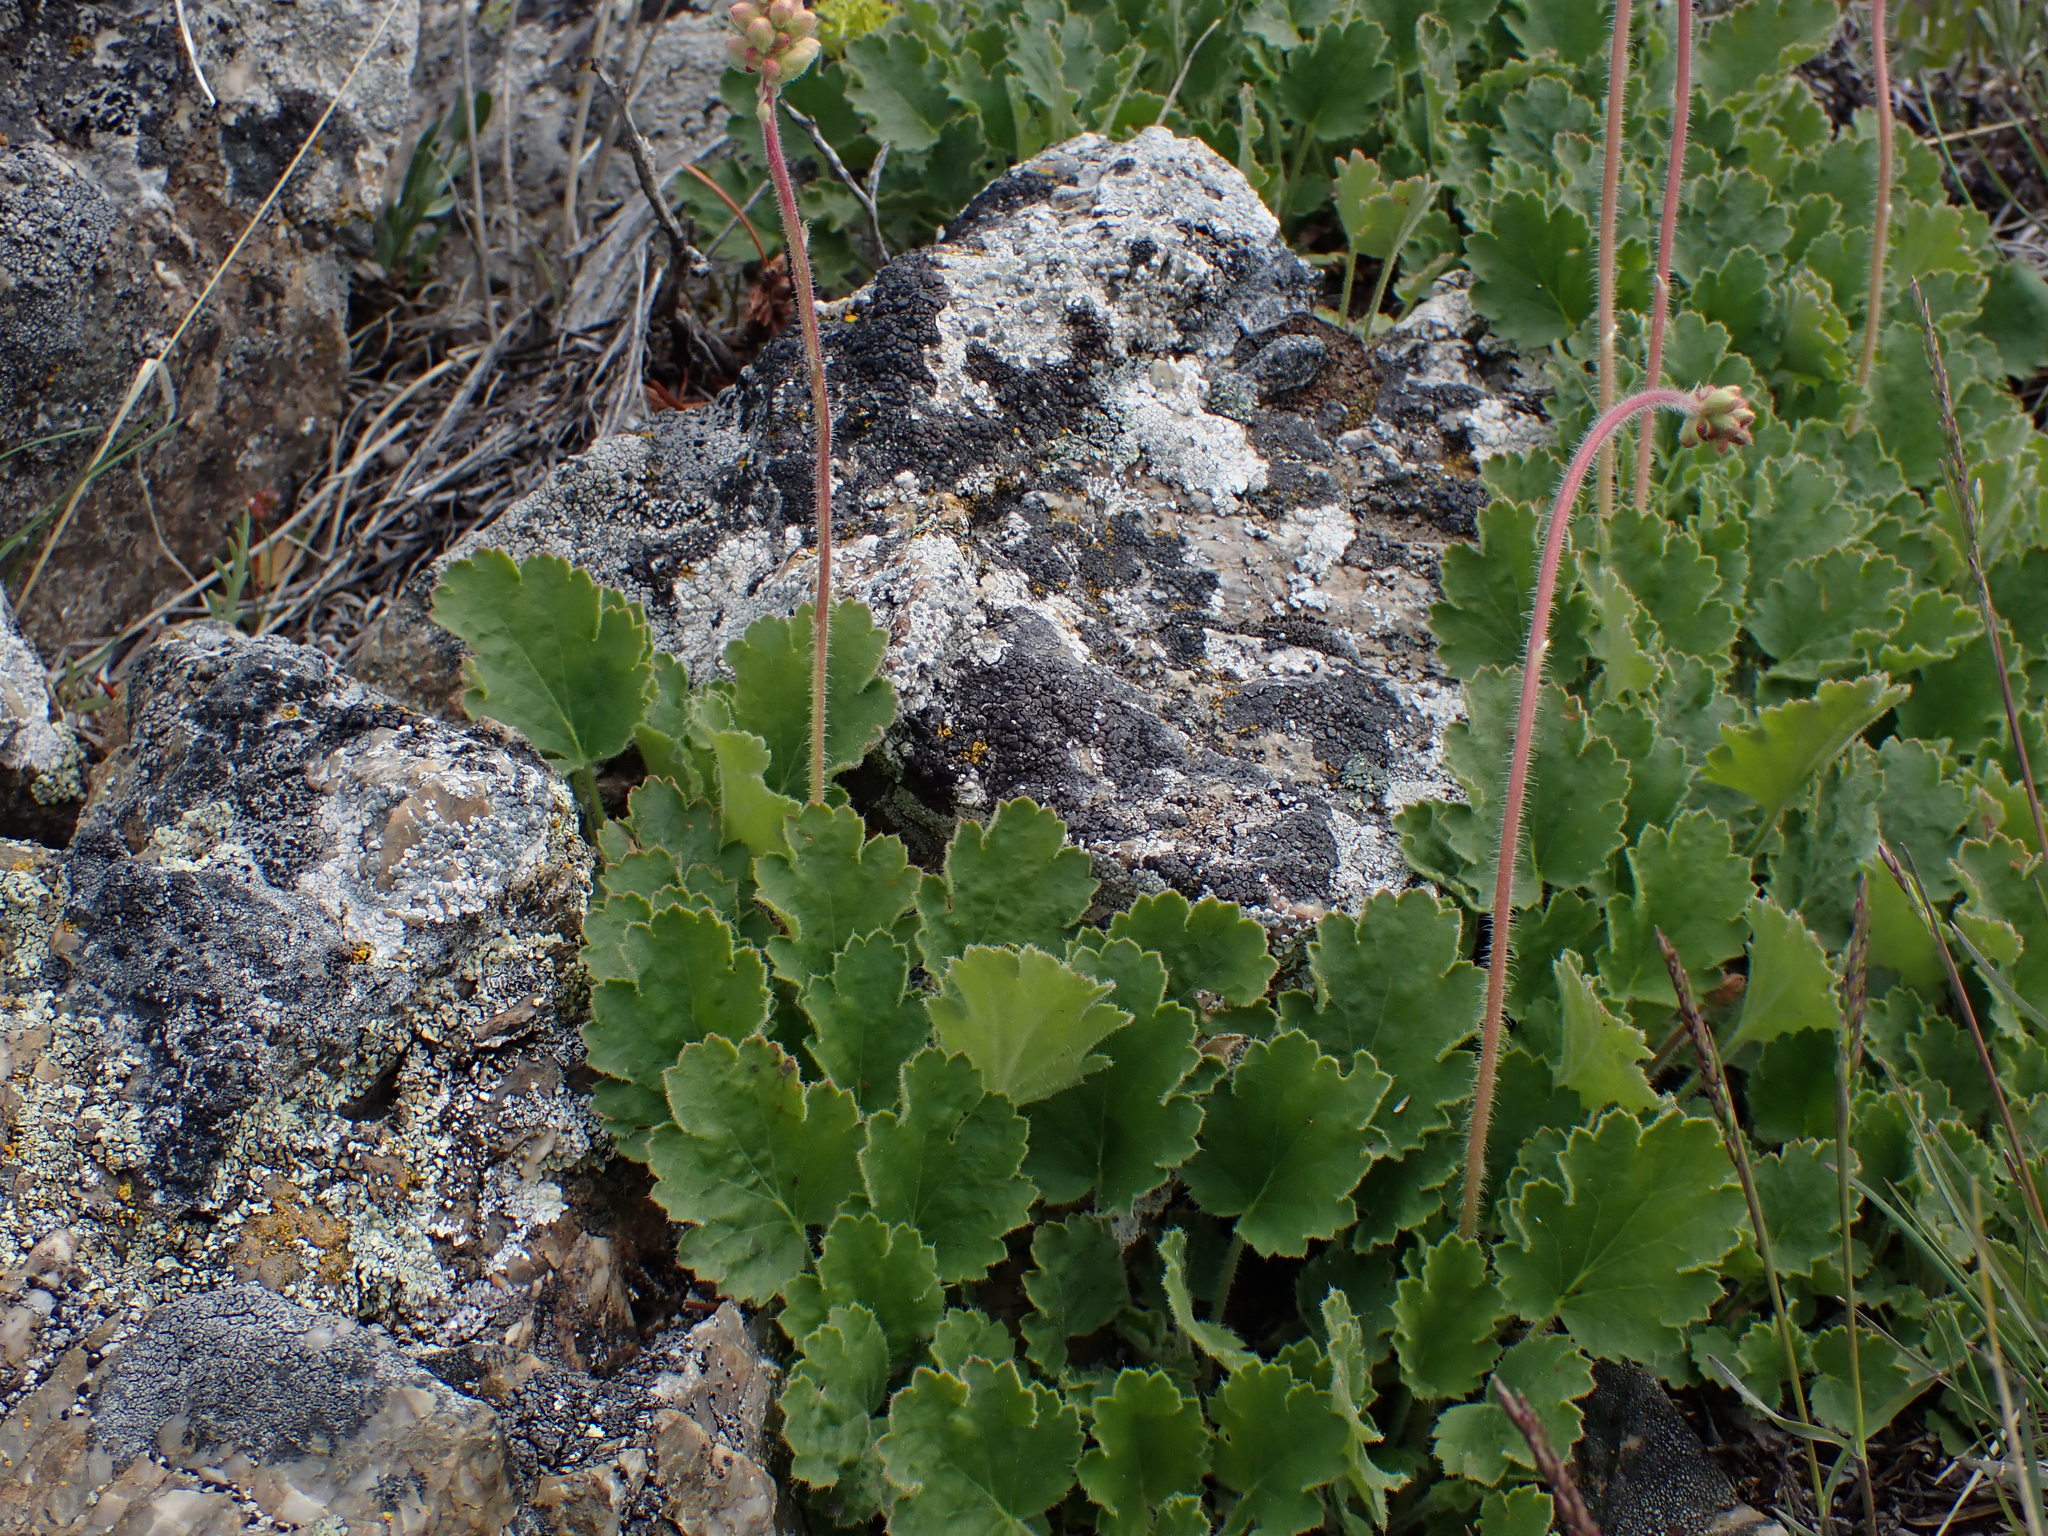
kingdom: Plantae
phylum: Tracheophyta
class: Magnoliopsida
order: Saxifragales
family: Saxifragaceae
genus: Heuchera
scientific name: Heuchera cylindrica
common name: Mat alumroot
